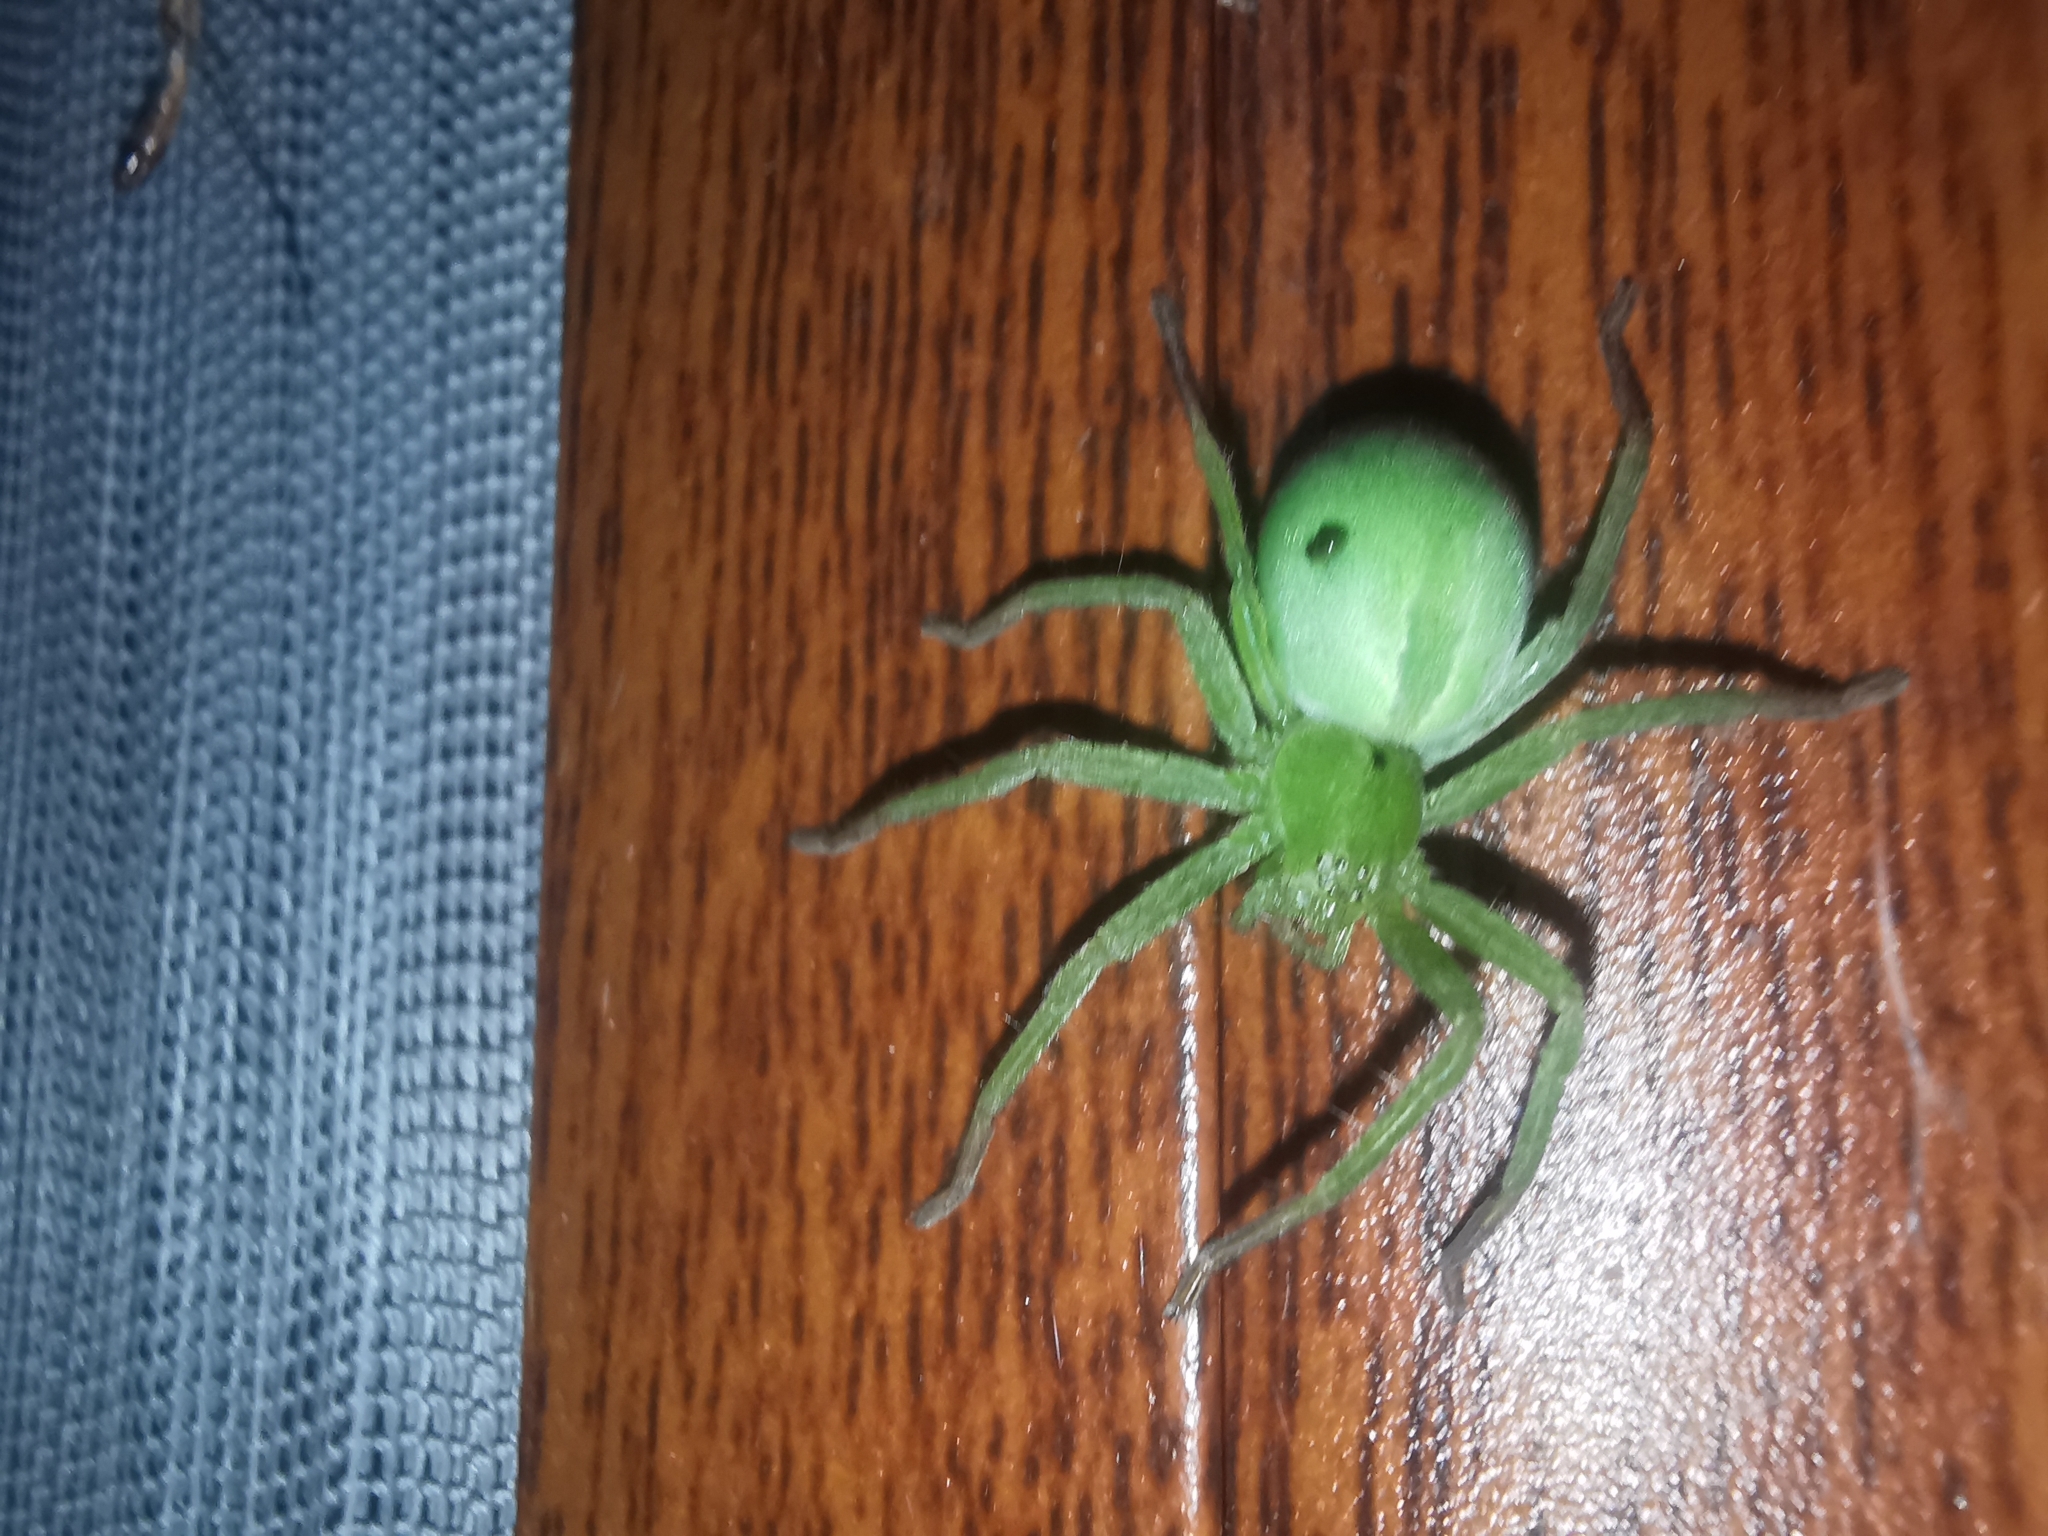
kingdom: Animalia
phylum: Arthropoda
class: Arachnida
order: Araneae
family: Sparassidae
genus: Micrommata
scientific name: Micrommata ligurina
